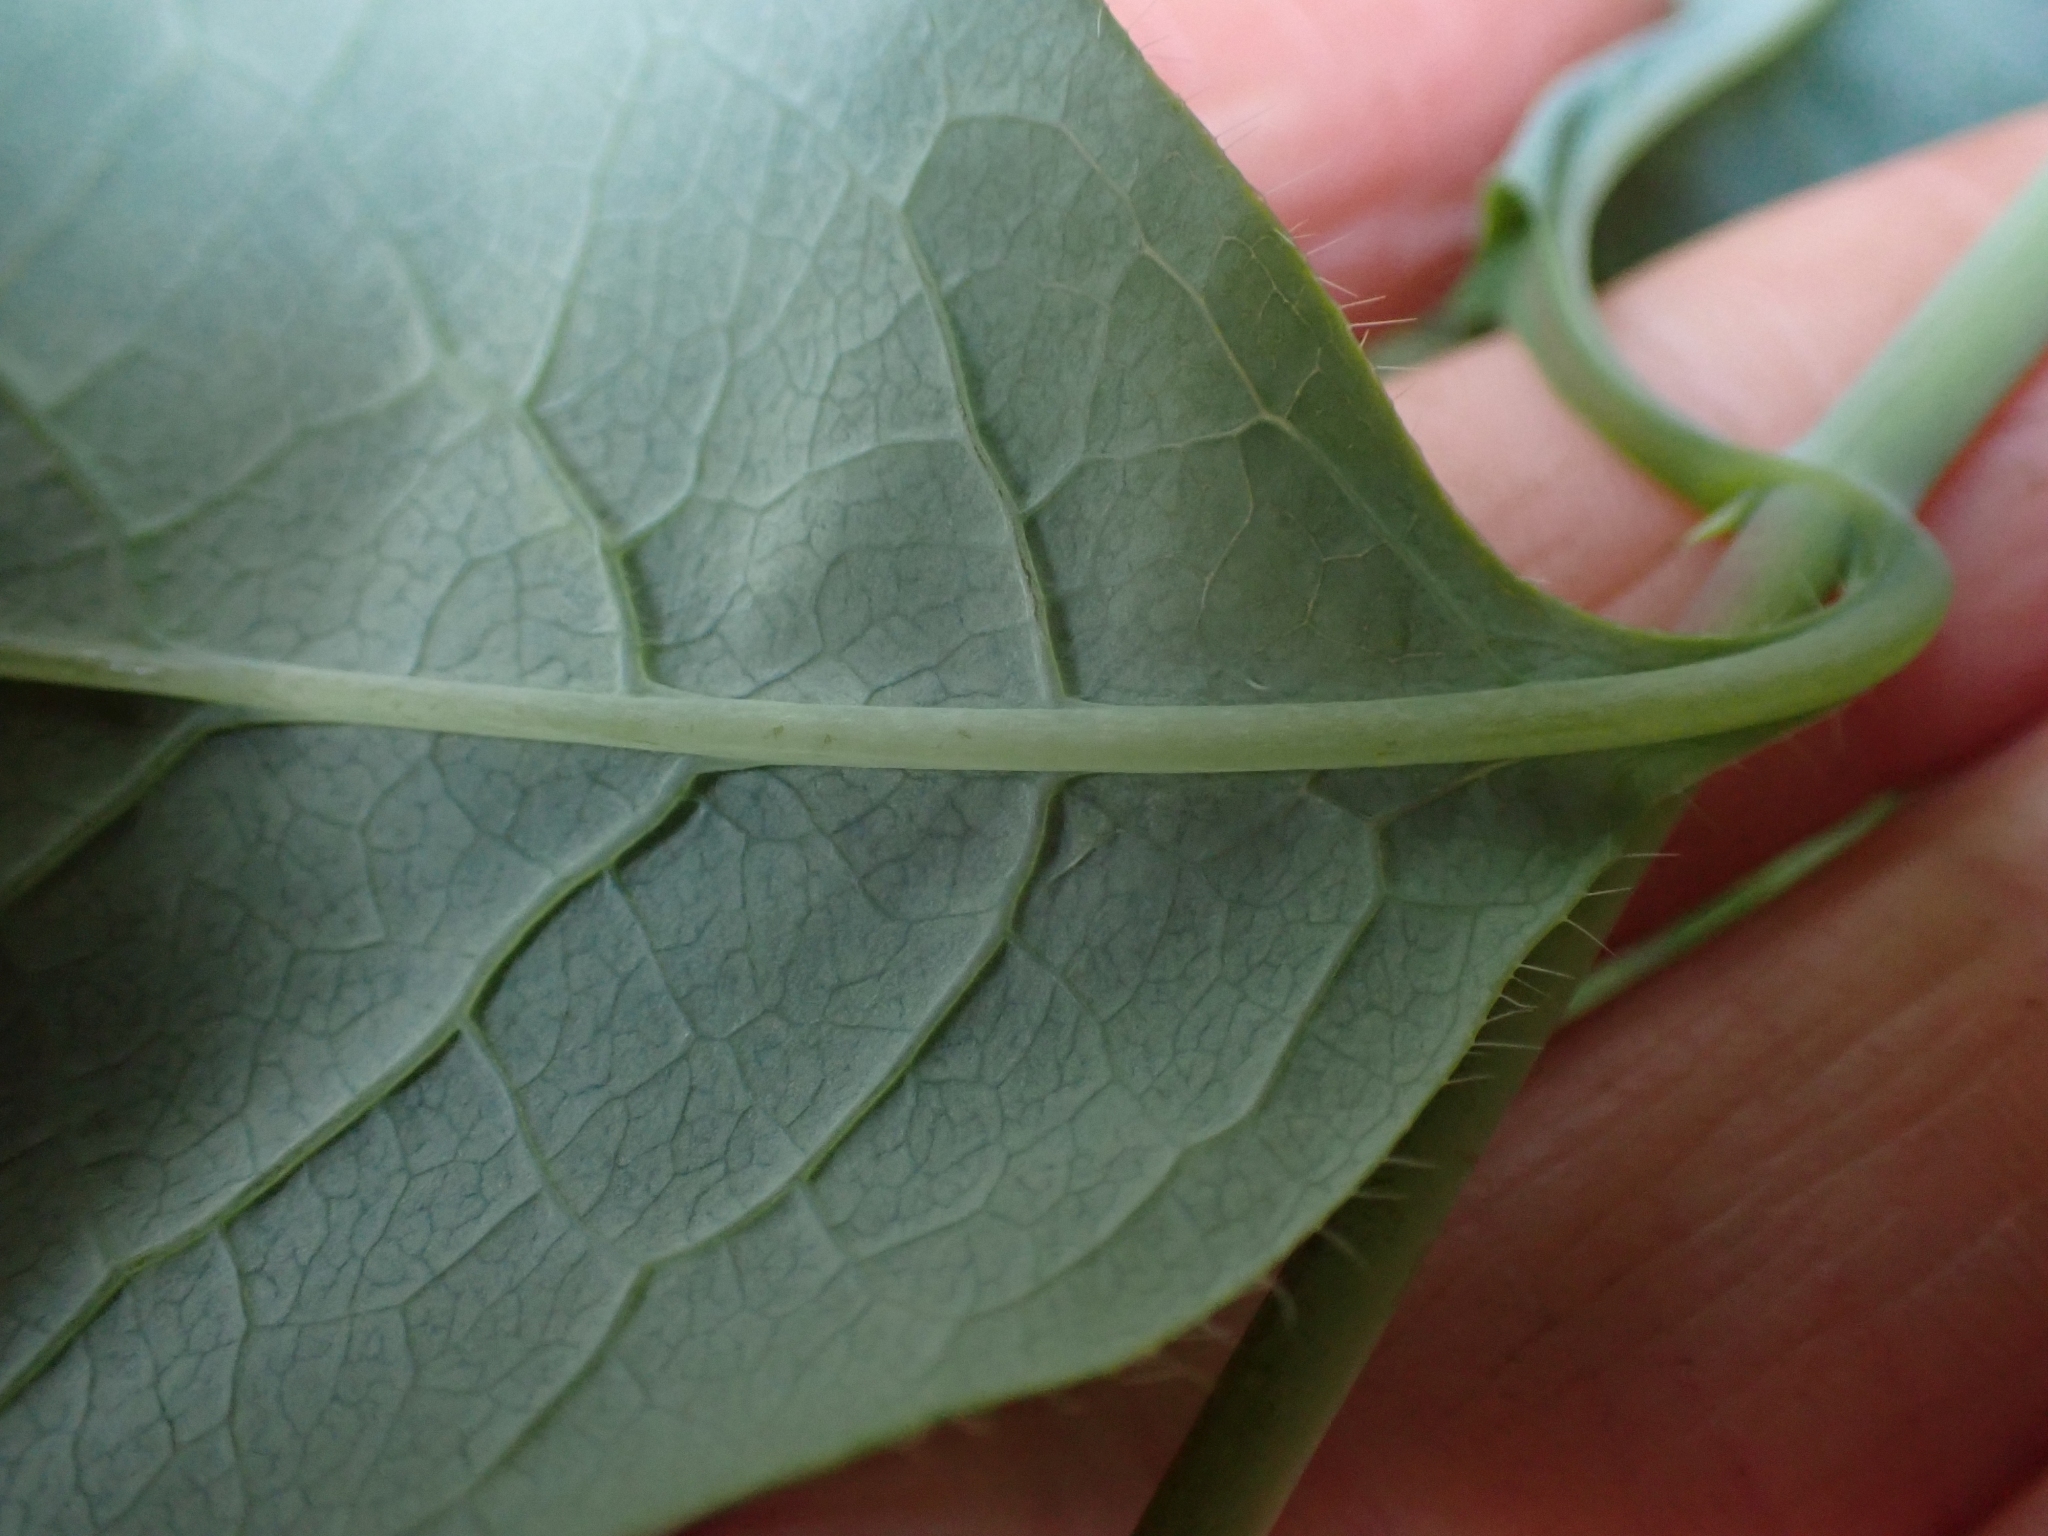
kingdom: Plantae
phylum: Tracheophyta
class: Magnoliopsida
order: Dipsacales
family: Caprifoliaceae
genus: Lonicera
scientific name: Lonicera ciliosa
